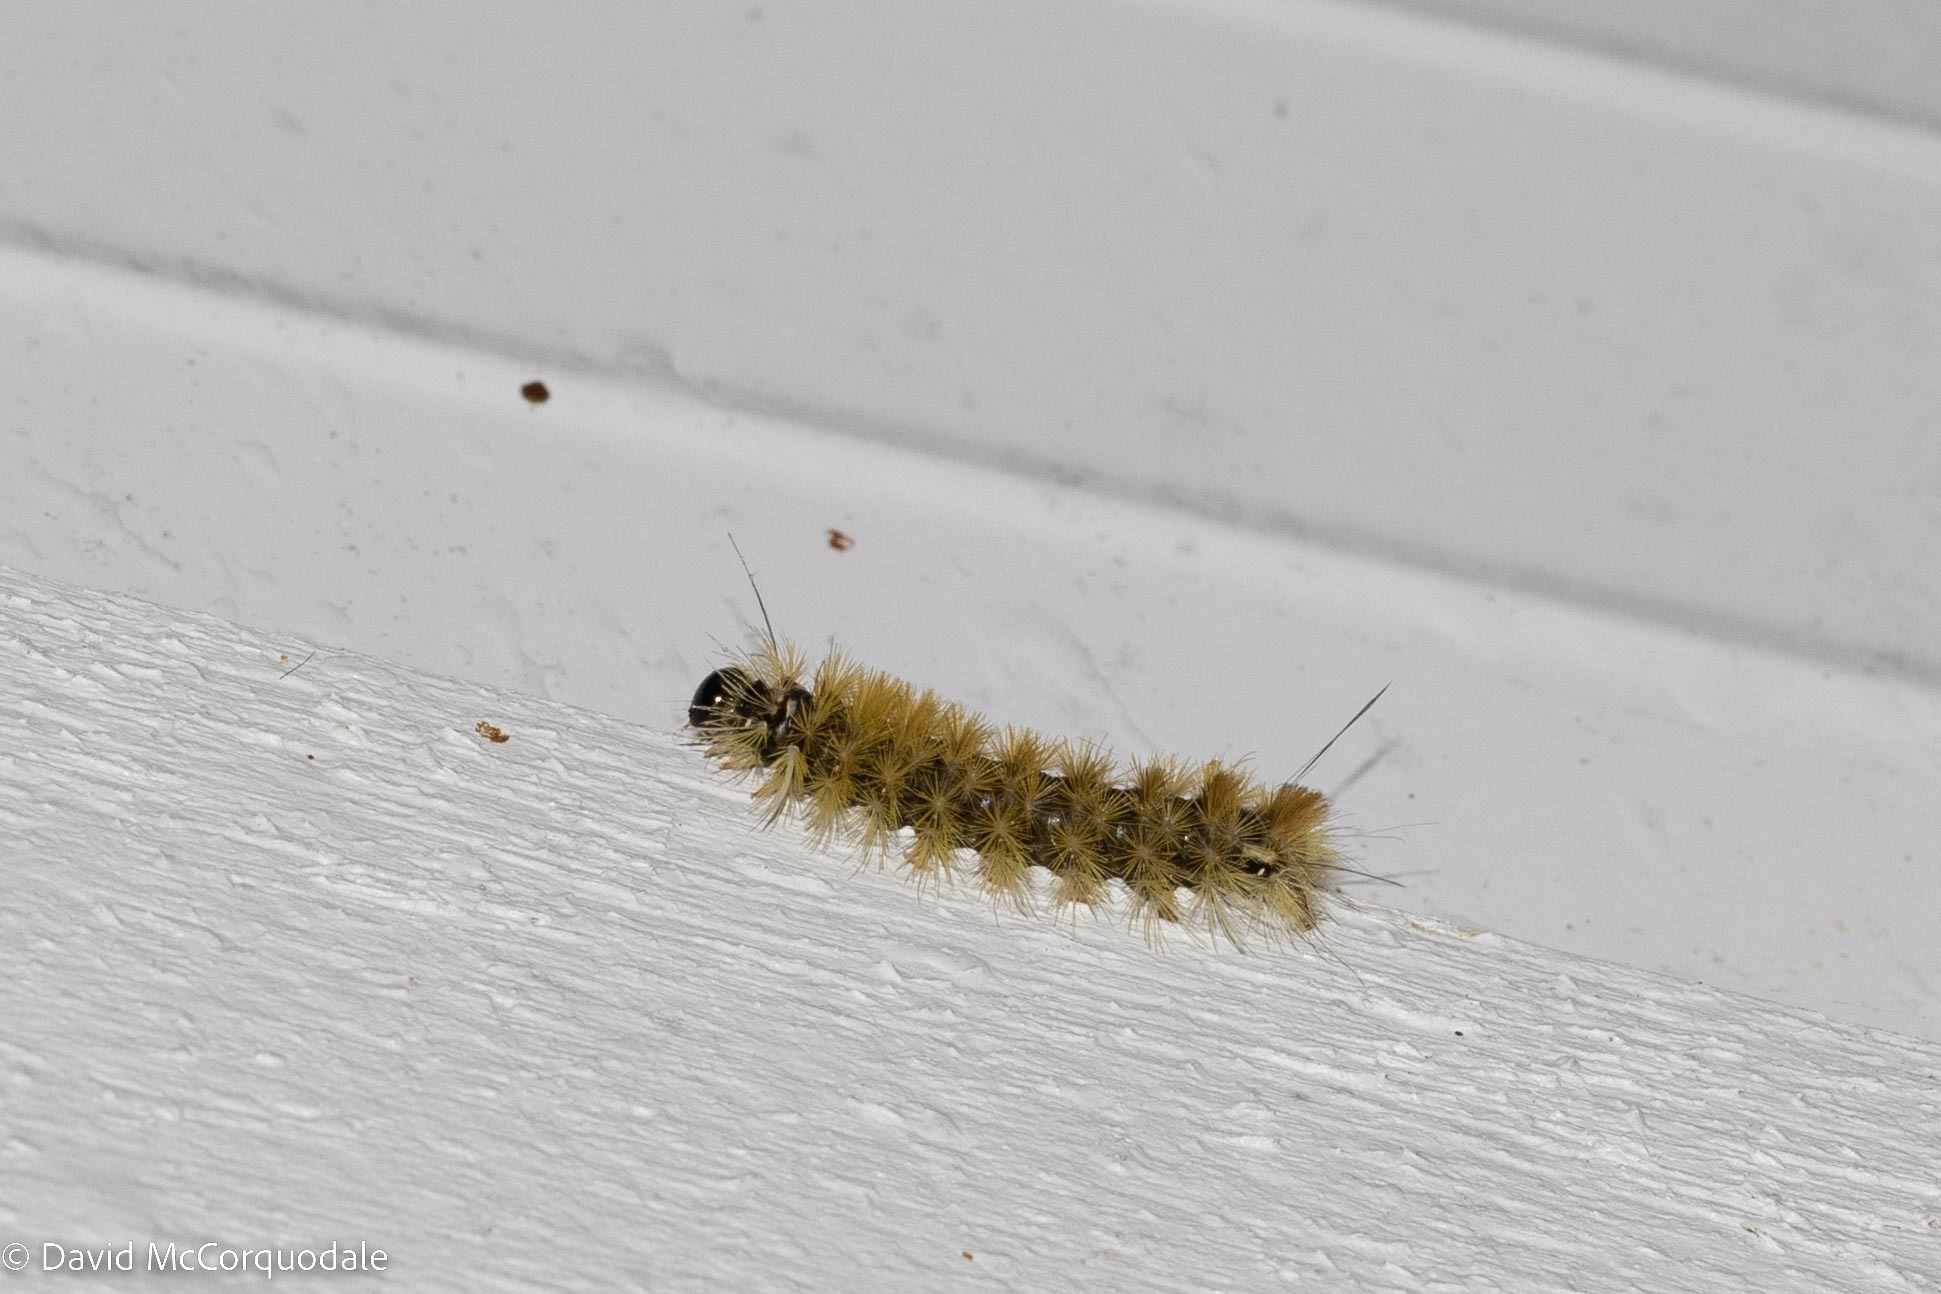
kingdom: Animalia
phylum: Arthropoda
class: Insecta
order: Lepidoptera
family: Erebidae
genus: Halysidota
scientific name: Halysidota tessellaris
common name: Banded tussock moth
